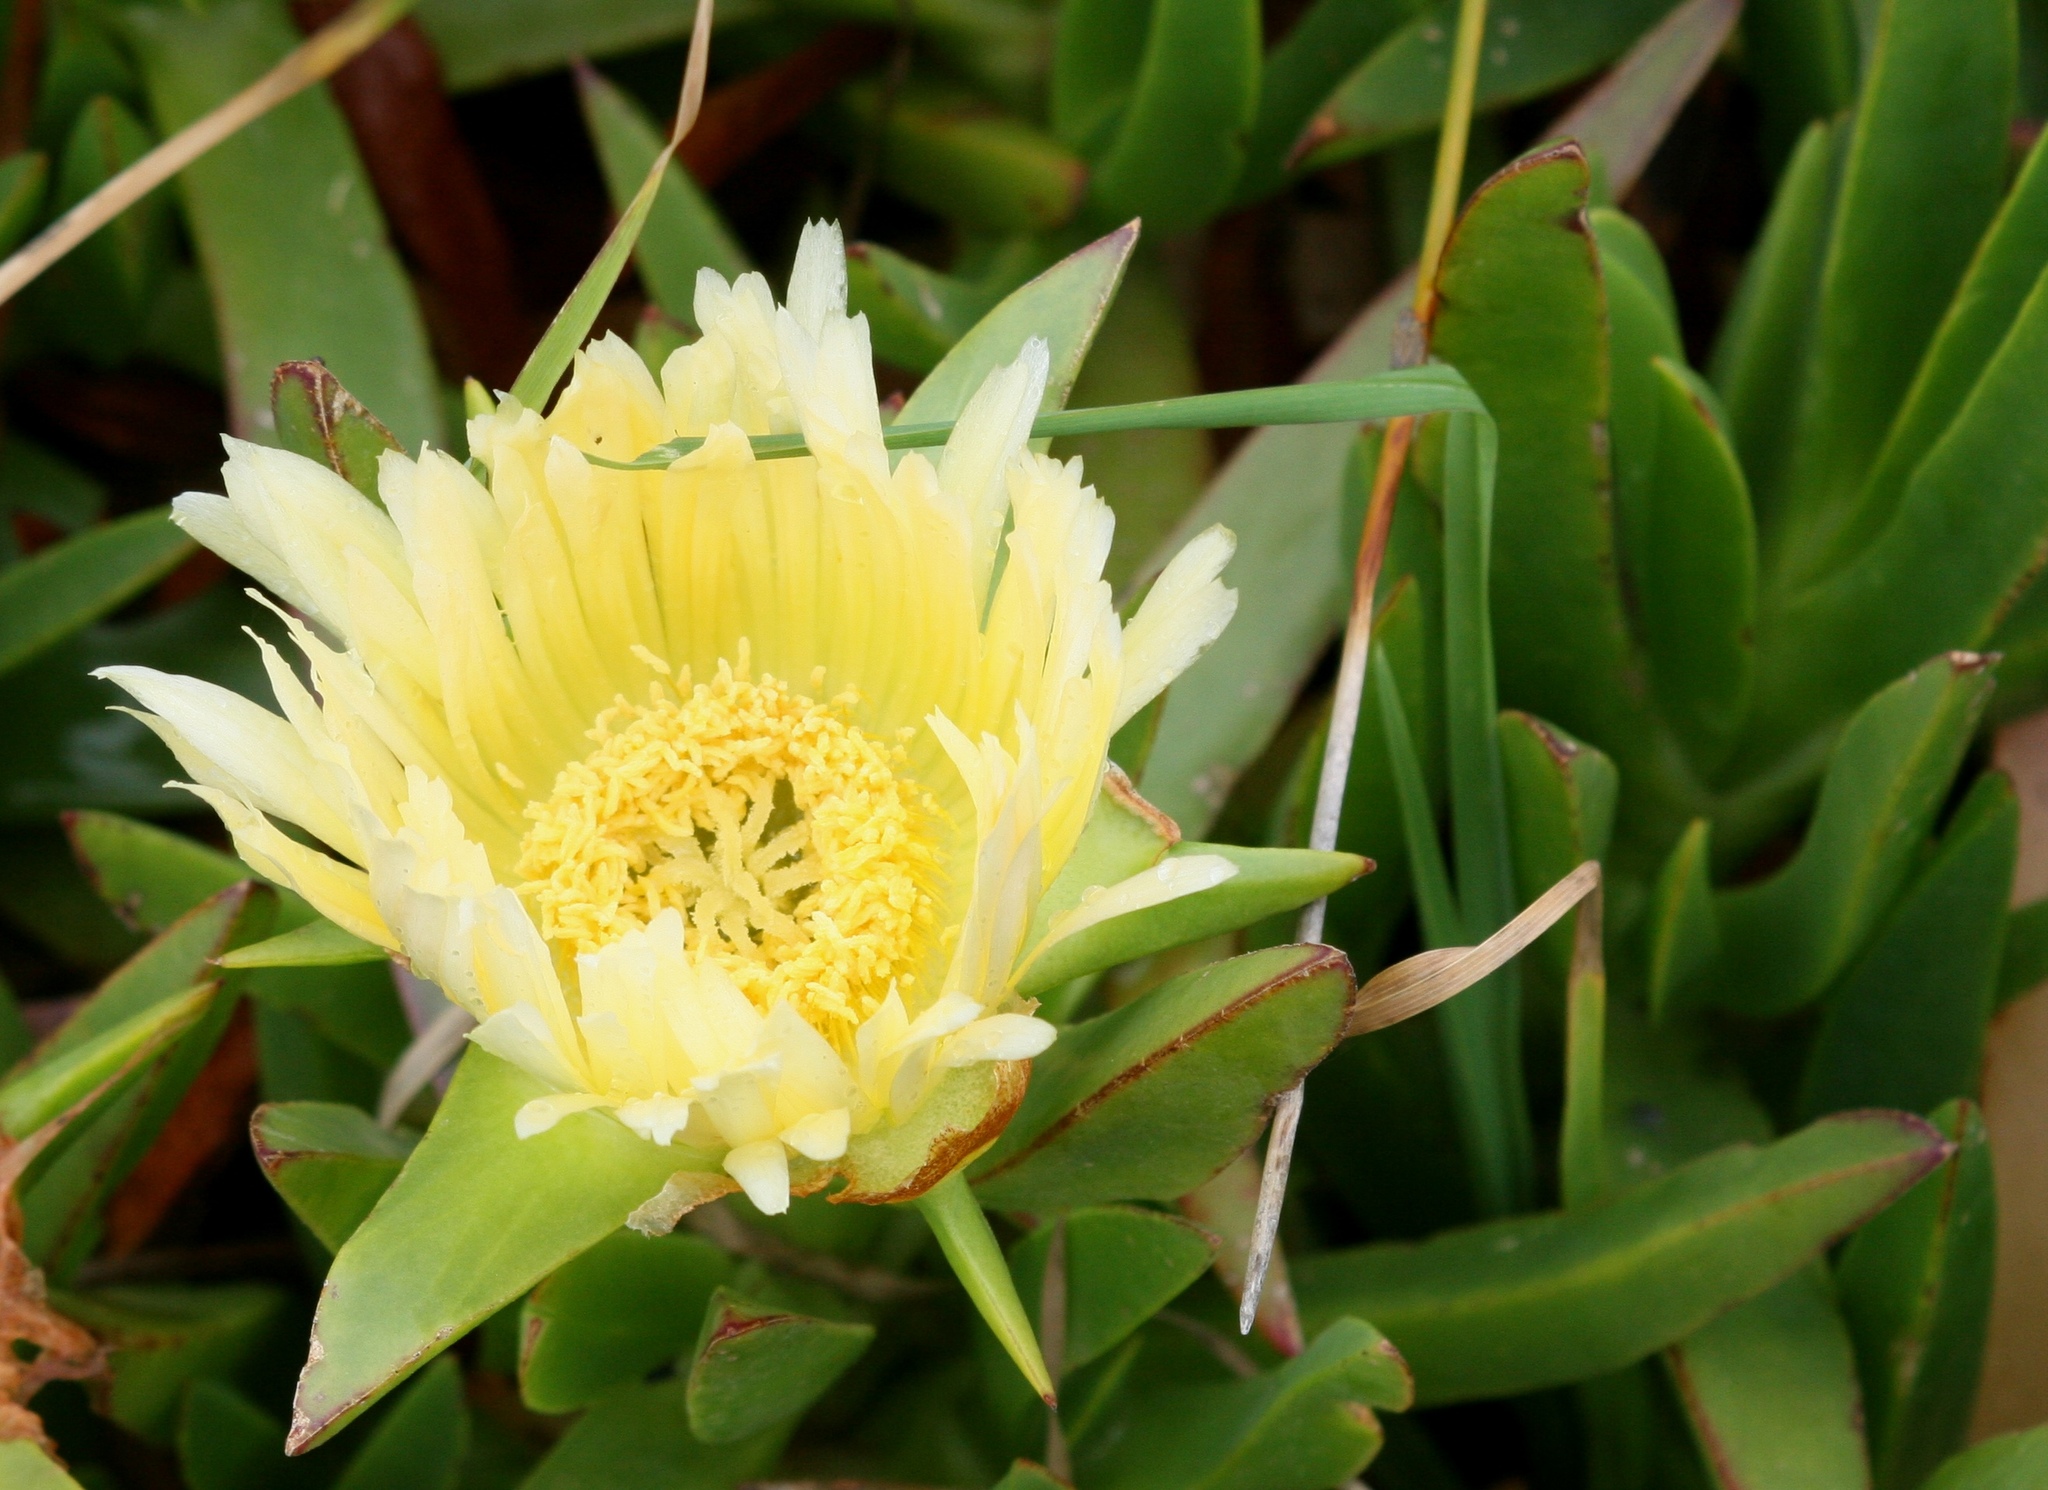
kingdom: Plantae
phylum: Tracheophyta
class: Magnoliopsida
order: Caryophyllales
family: Aizoaceae
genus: Carpobrotus
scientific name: Carpobrotus edulis
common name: Hottentot-fig
